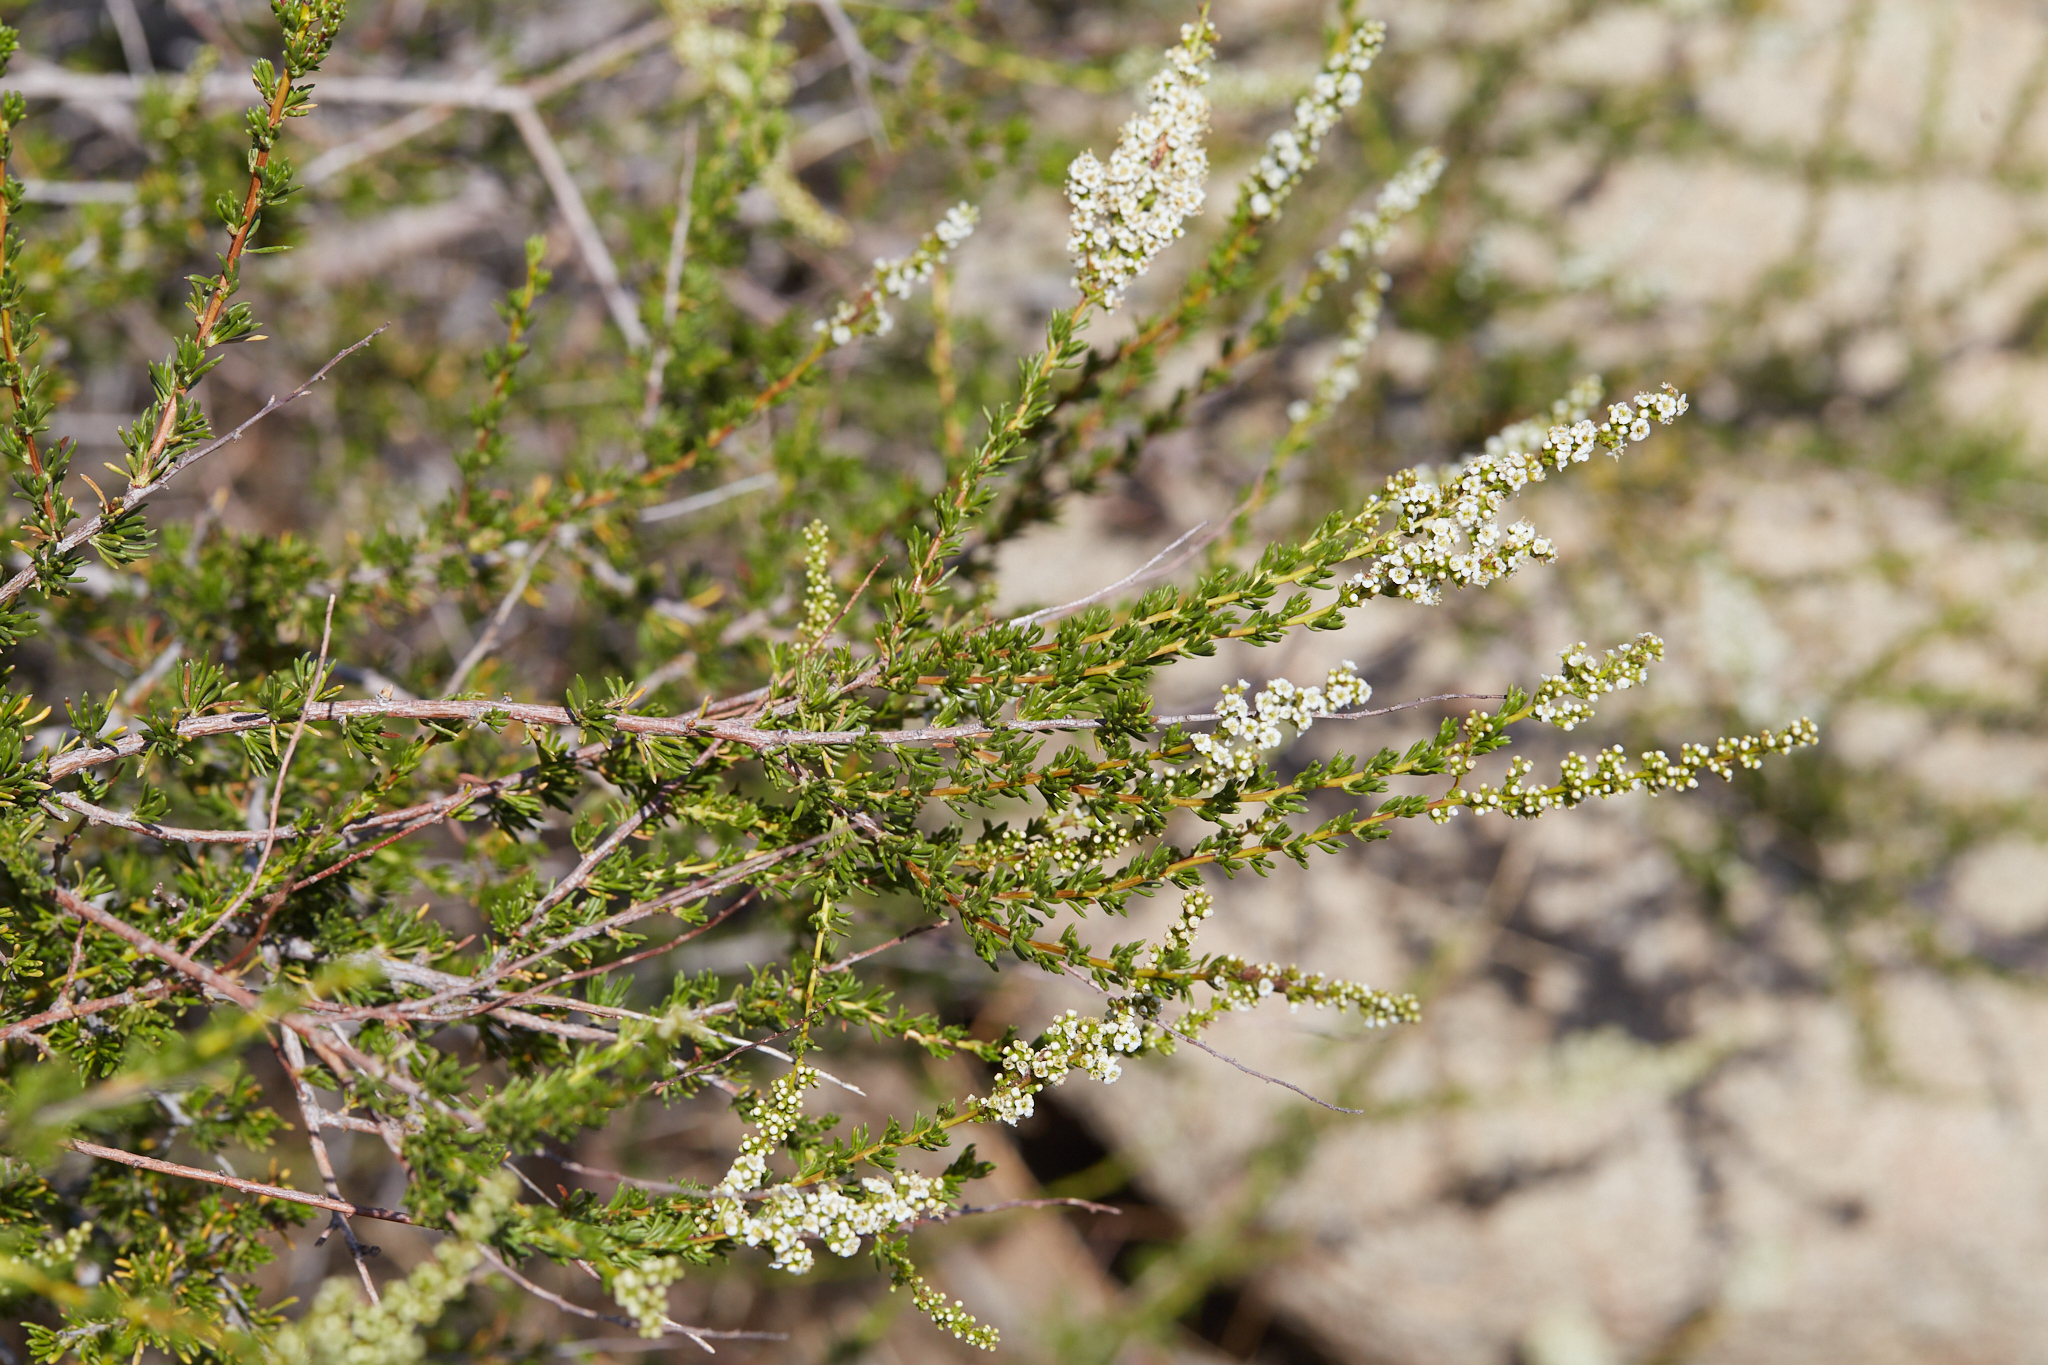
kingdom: Plantae
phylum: Tracheophyta
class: Magnoliopsida
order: Rosales
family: Rosaceae
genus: Adenostoma
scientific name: Adenostoma fasciculatum
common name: Chamise
